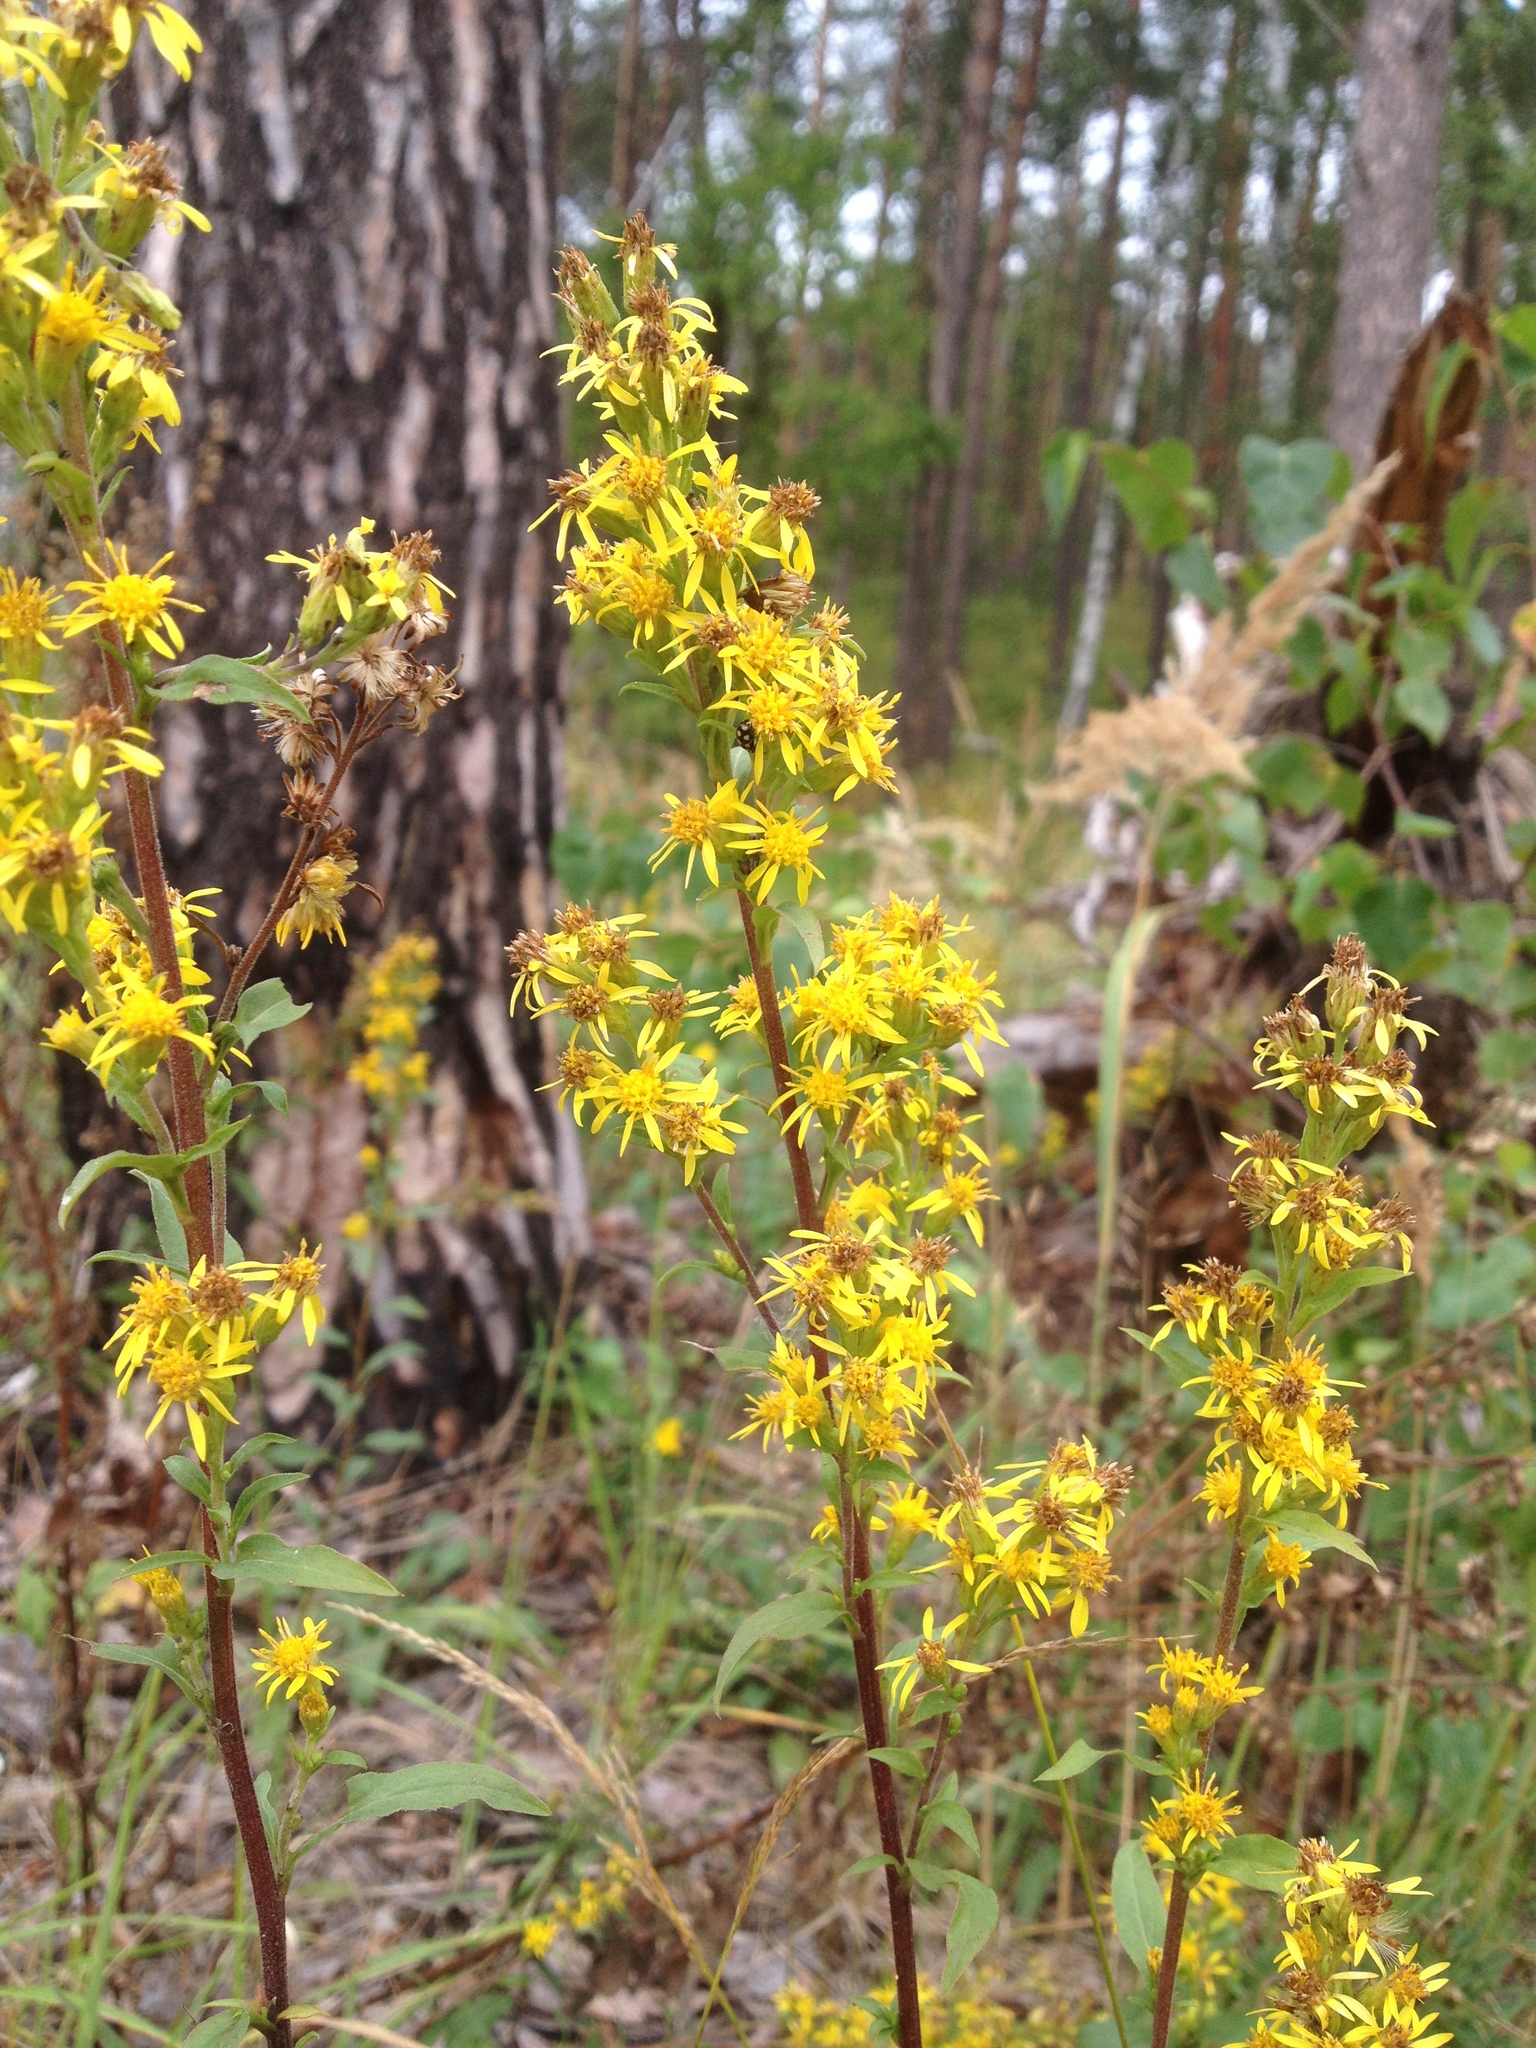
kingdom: Plantae
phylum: Tracheophyta
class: Magnoliopsida
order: Asterales
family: Asteraceae
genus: Solidago
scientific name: Solidago virgaurea
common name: Goldenrod
